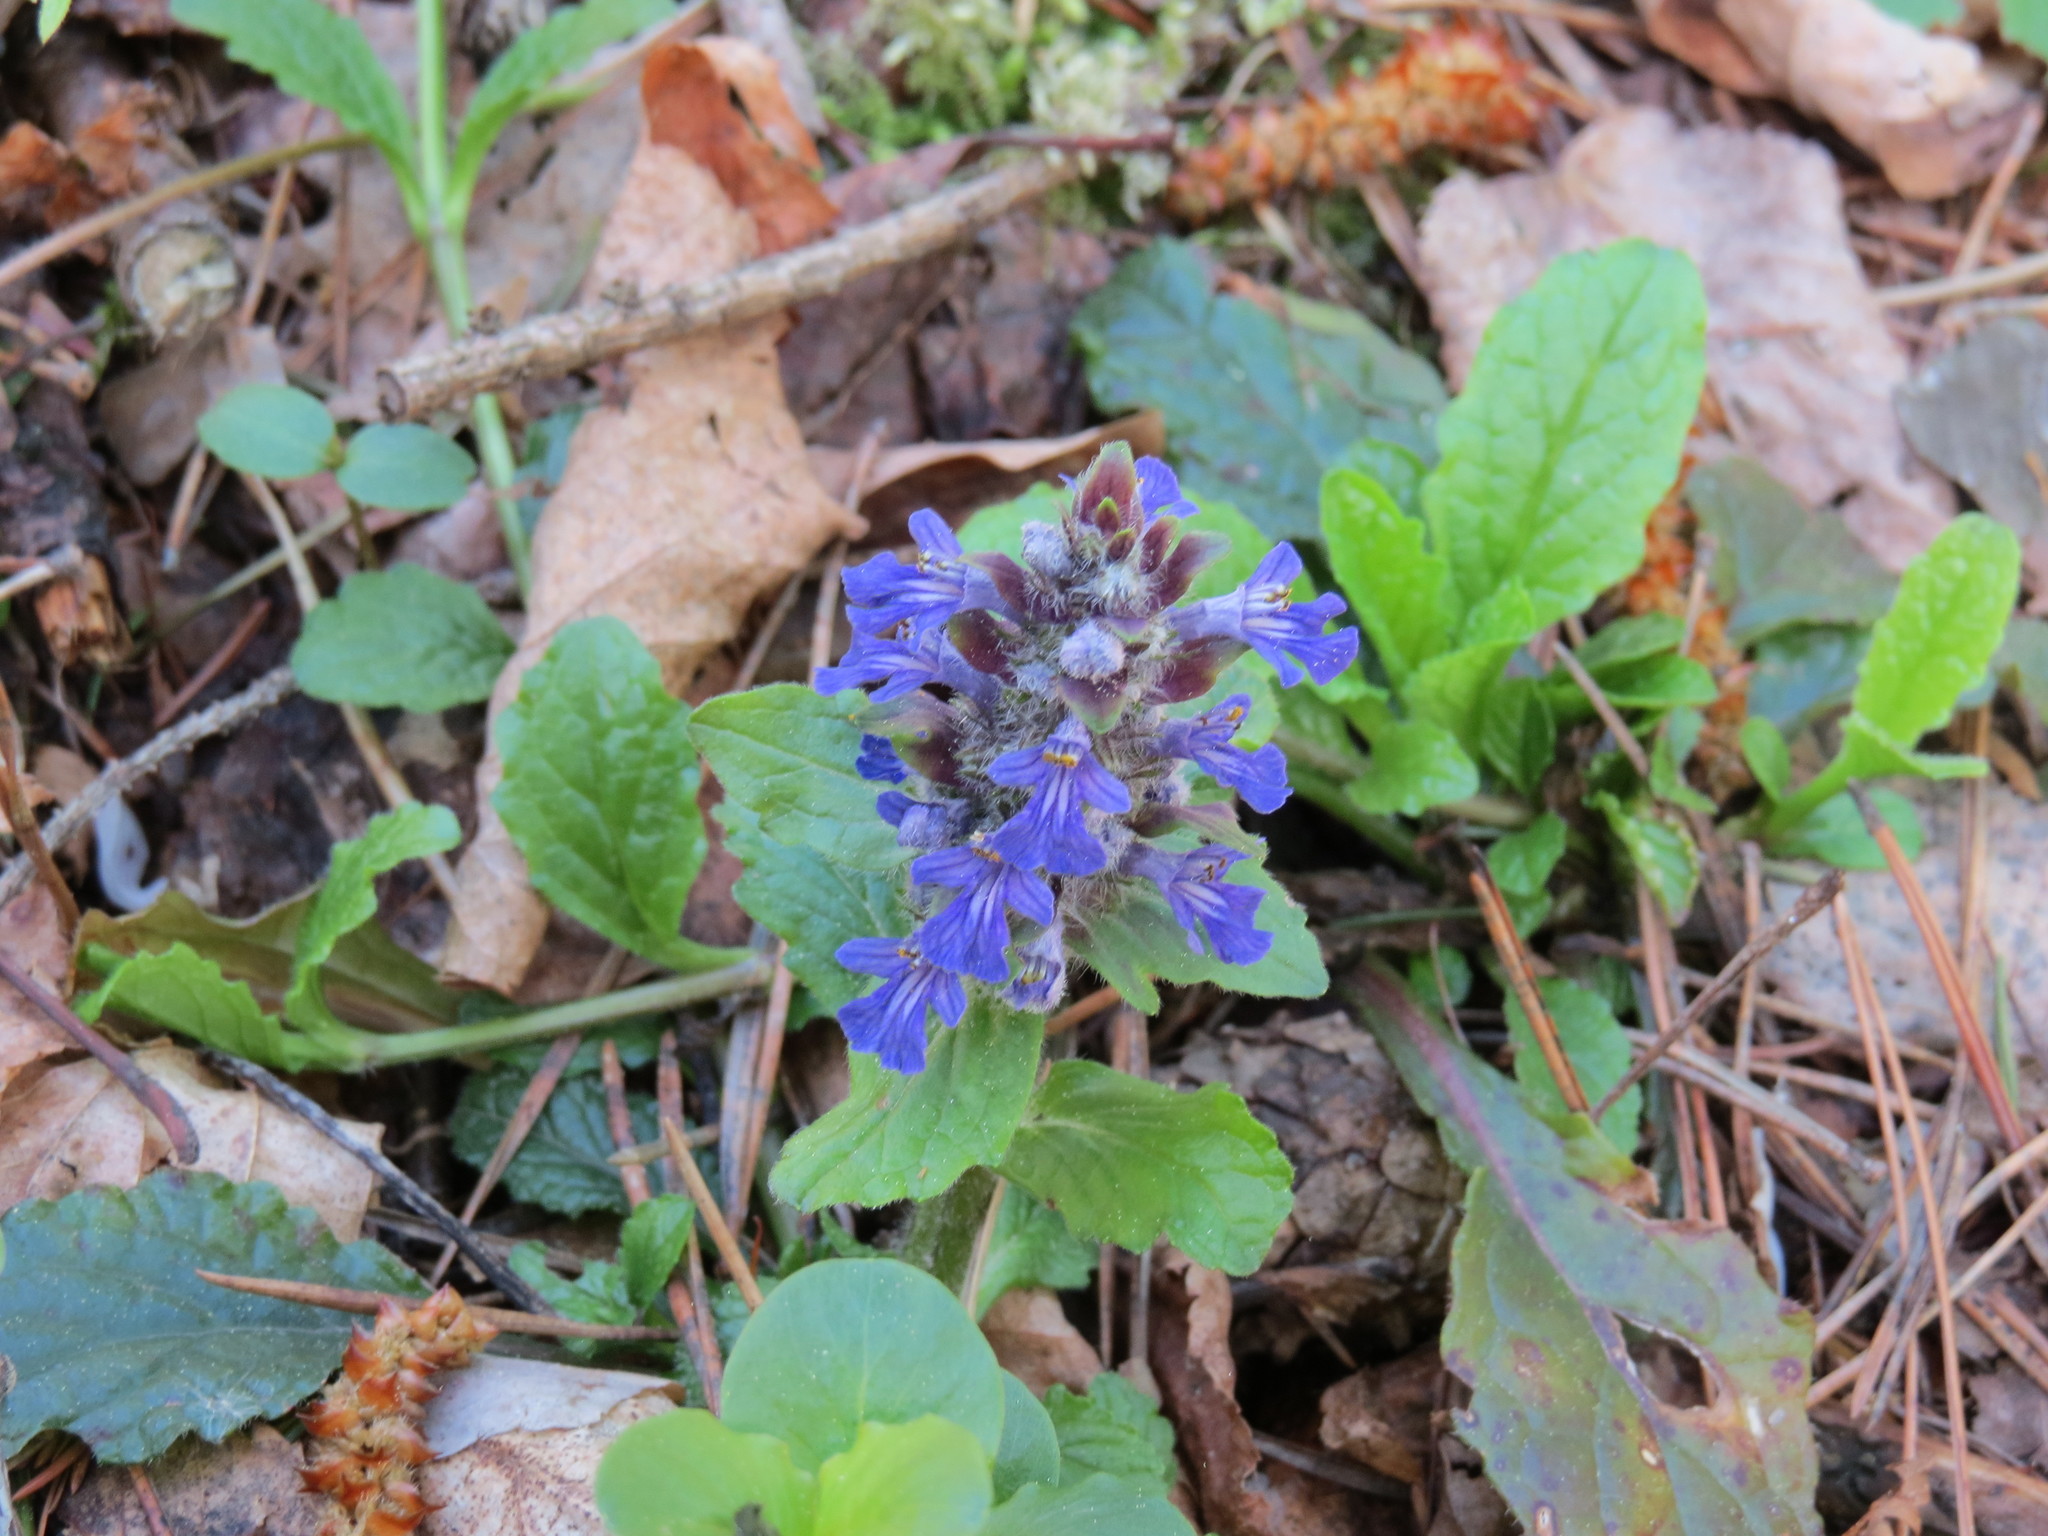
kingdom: Plantae
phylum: Tracheophyta
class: Magnoliopsida
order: Lamiales
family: Lamiaceae
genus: Ajuga
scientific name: Ajuga reptans
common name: Bugle
